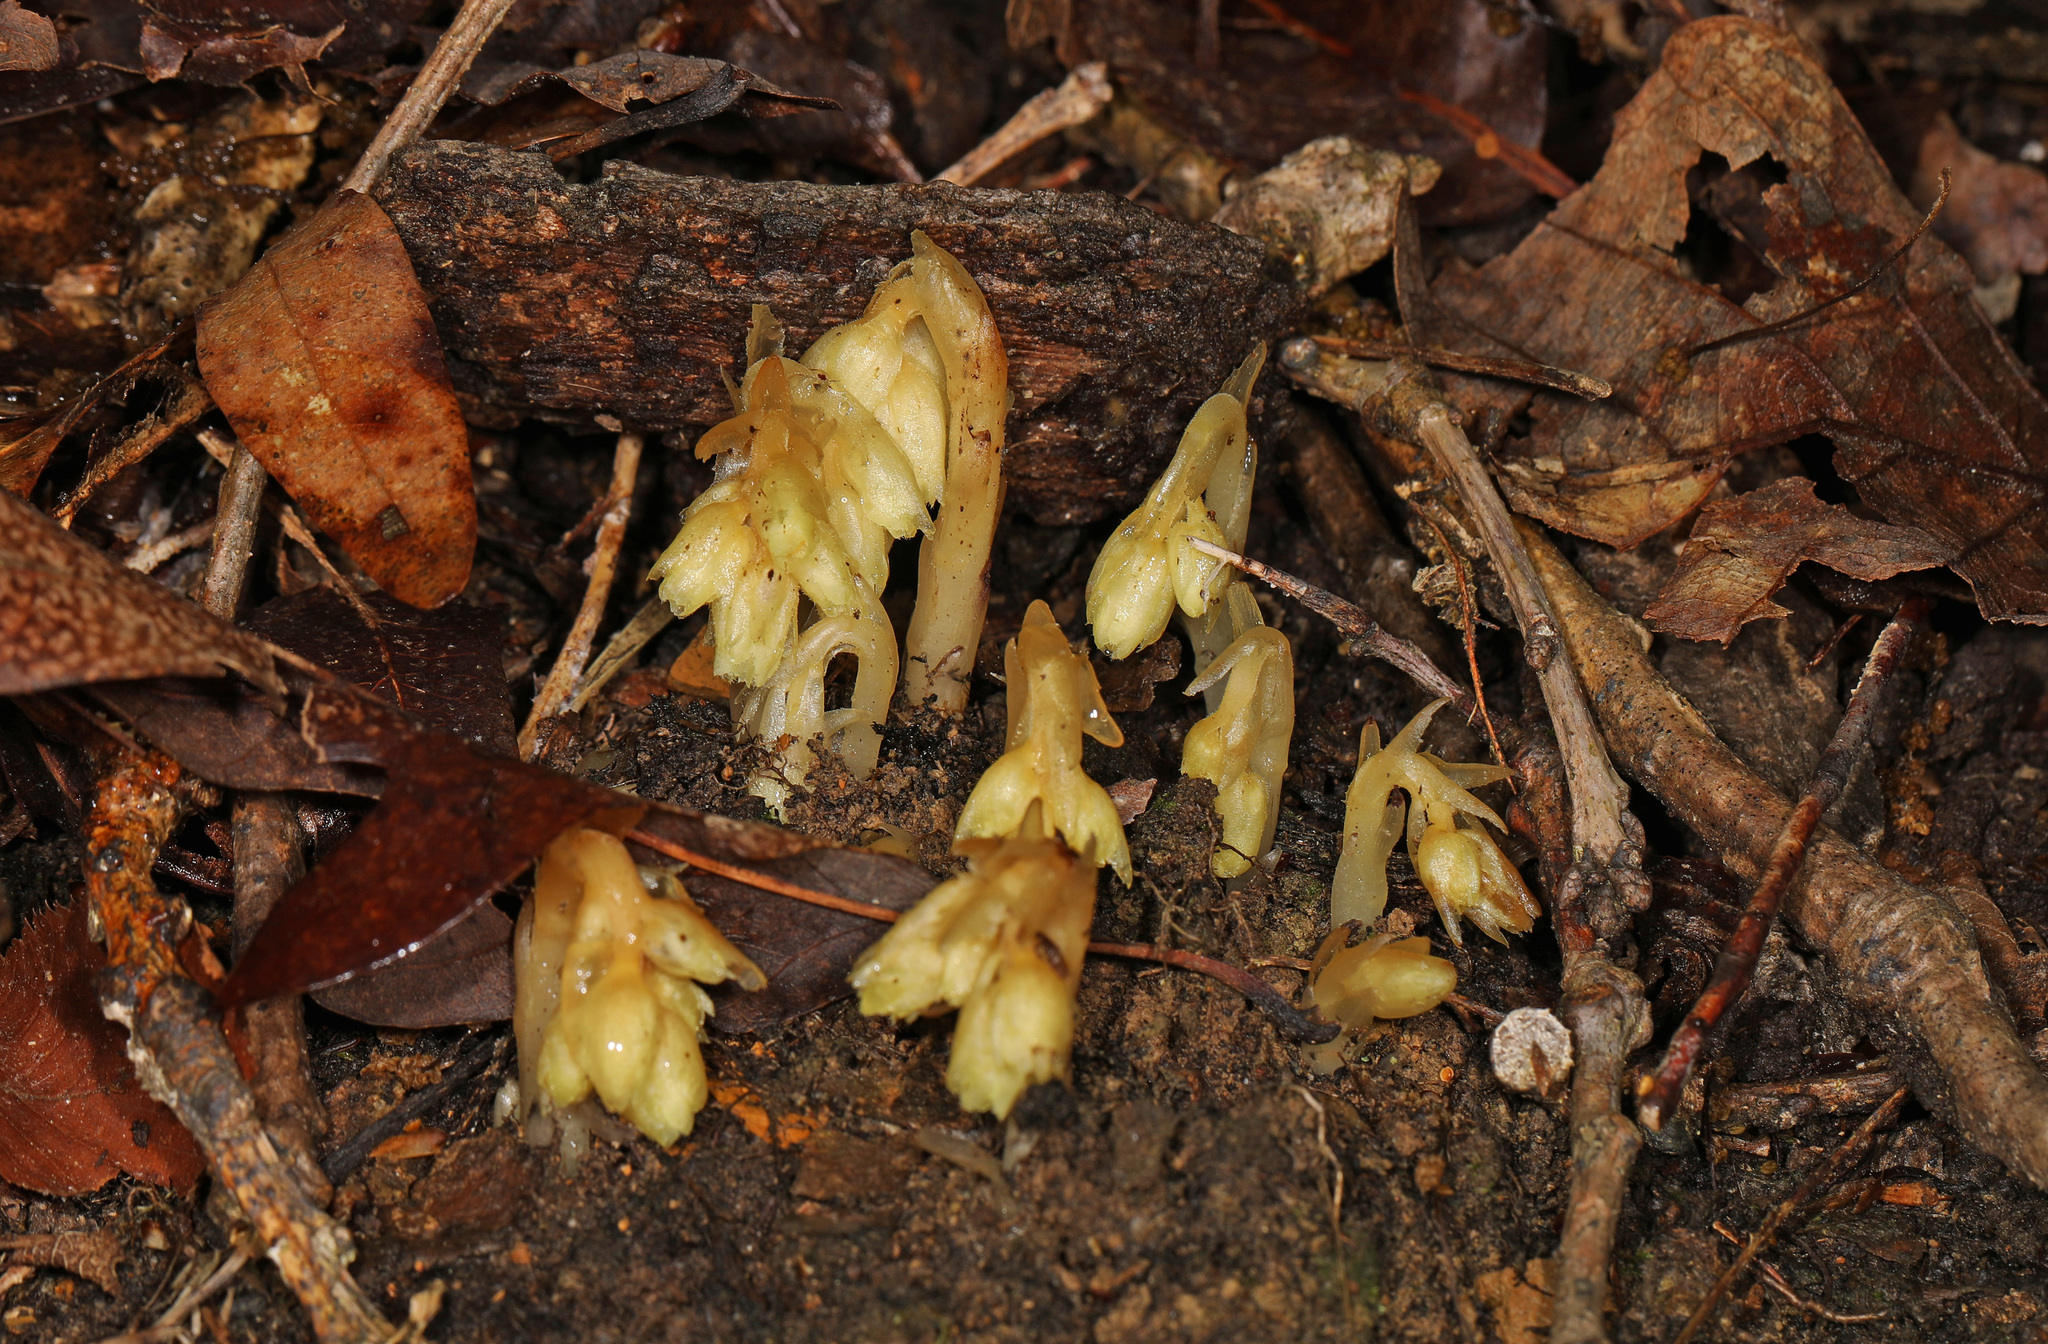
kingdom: Plantae
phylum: Tracheophyta
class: Magnoliopsida
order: Ericales
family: Ericaceae
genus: Hypopitys
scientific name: Hypopitys monotropa
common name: Yellow bird's-nest
